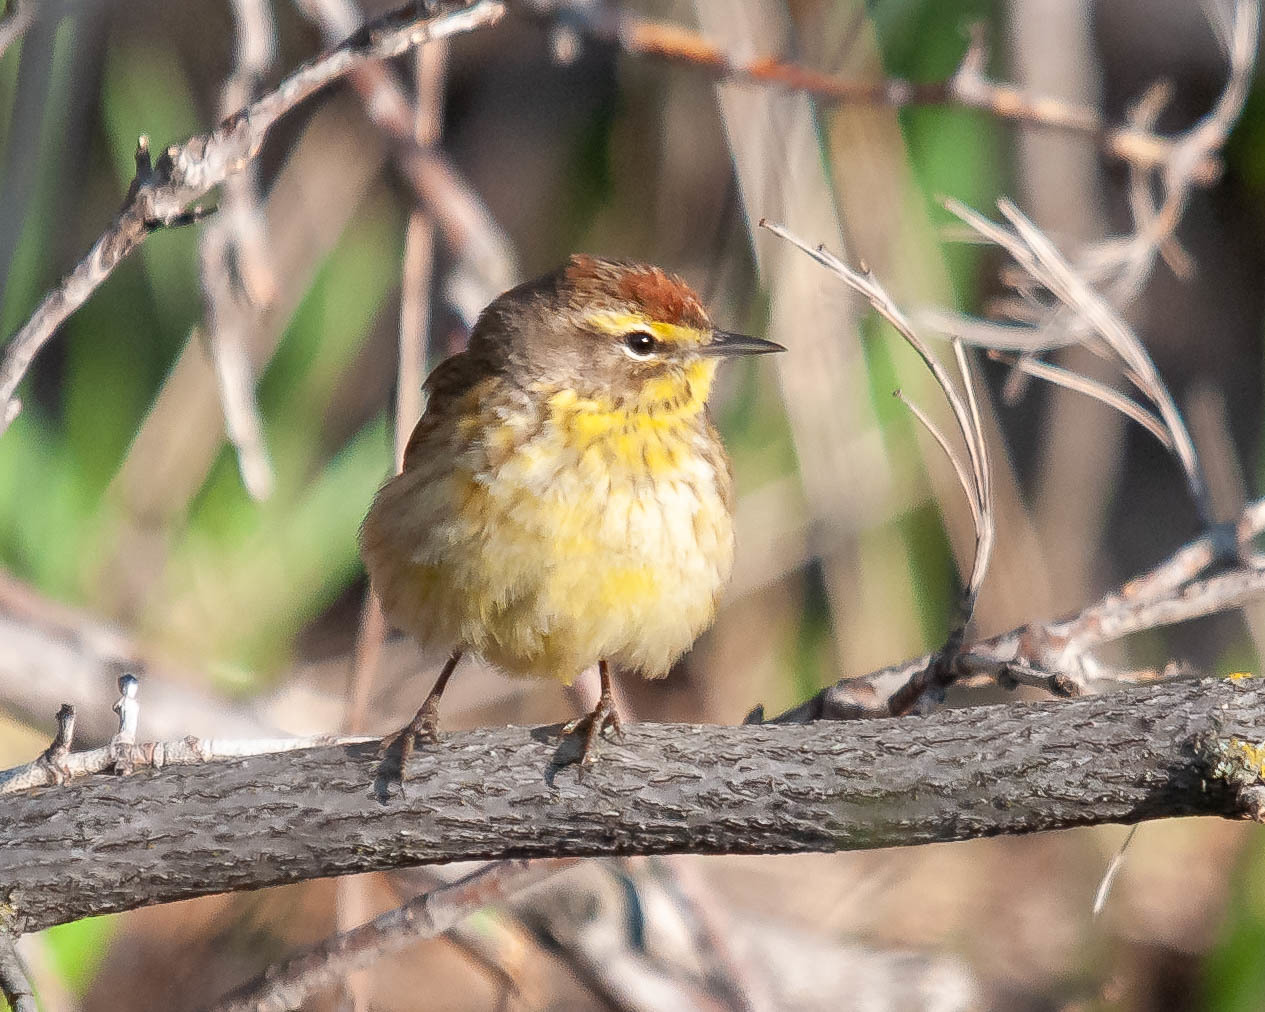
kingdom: Animalia
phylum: Chordata
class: Aves
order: Passeriformes
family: Parulidae
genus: Setophaga
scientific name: Setophaga palmarum
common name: Palm warbler
